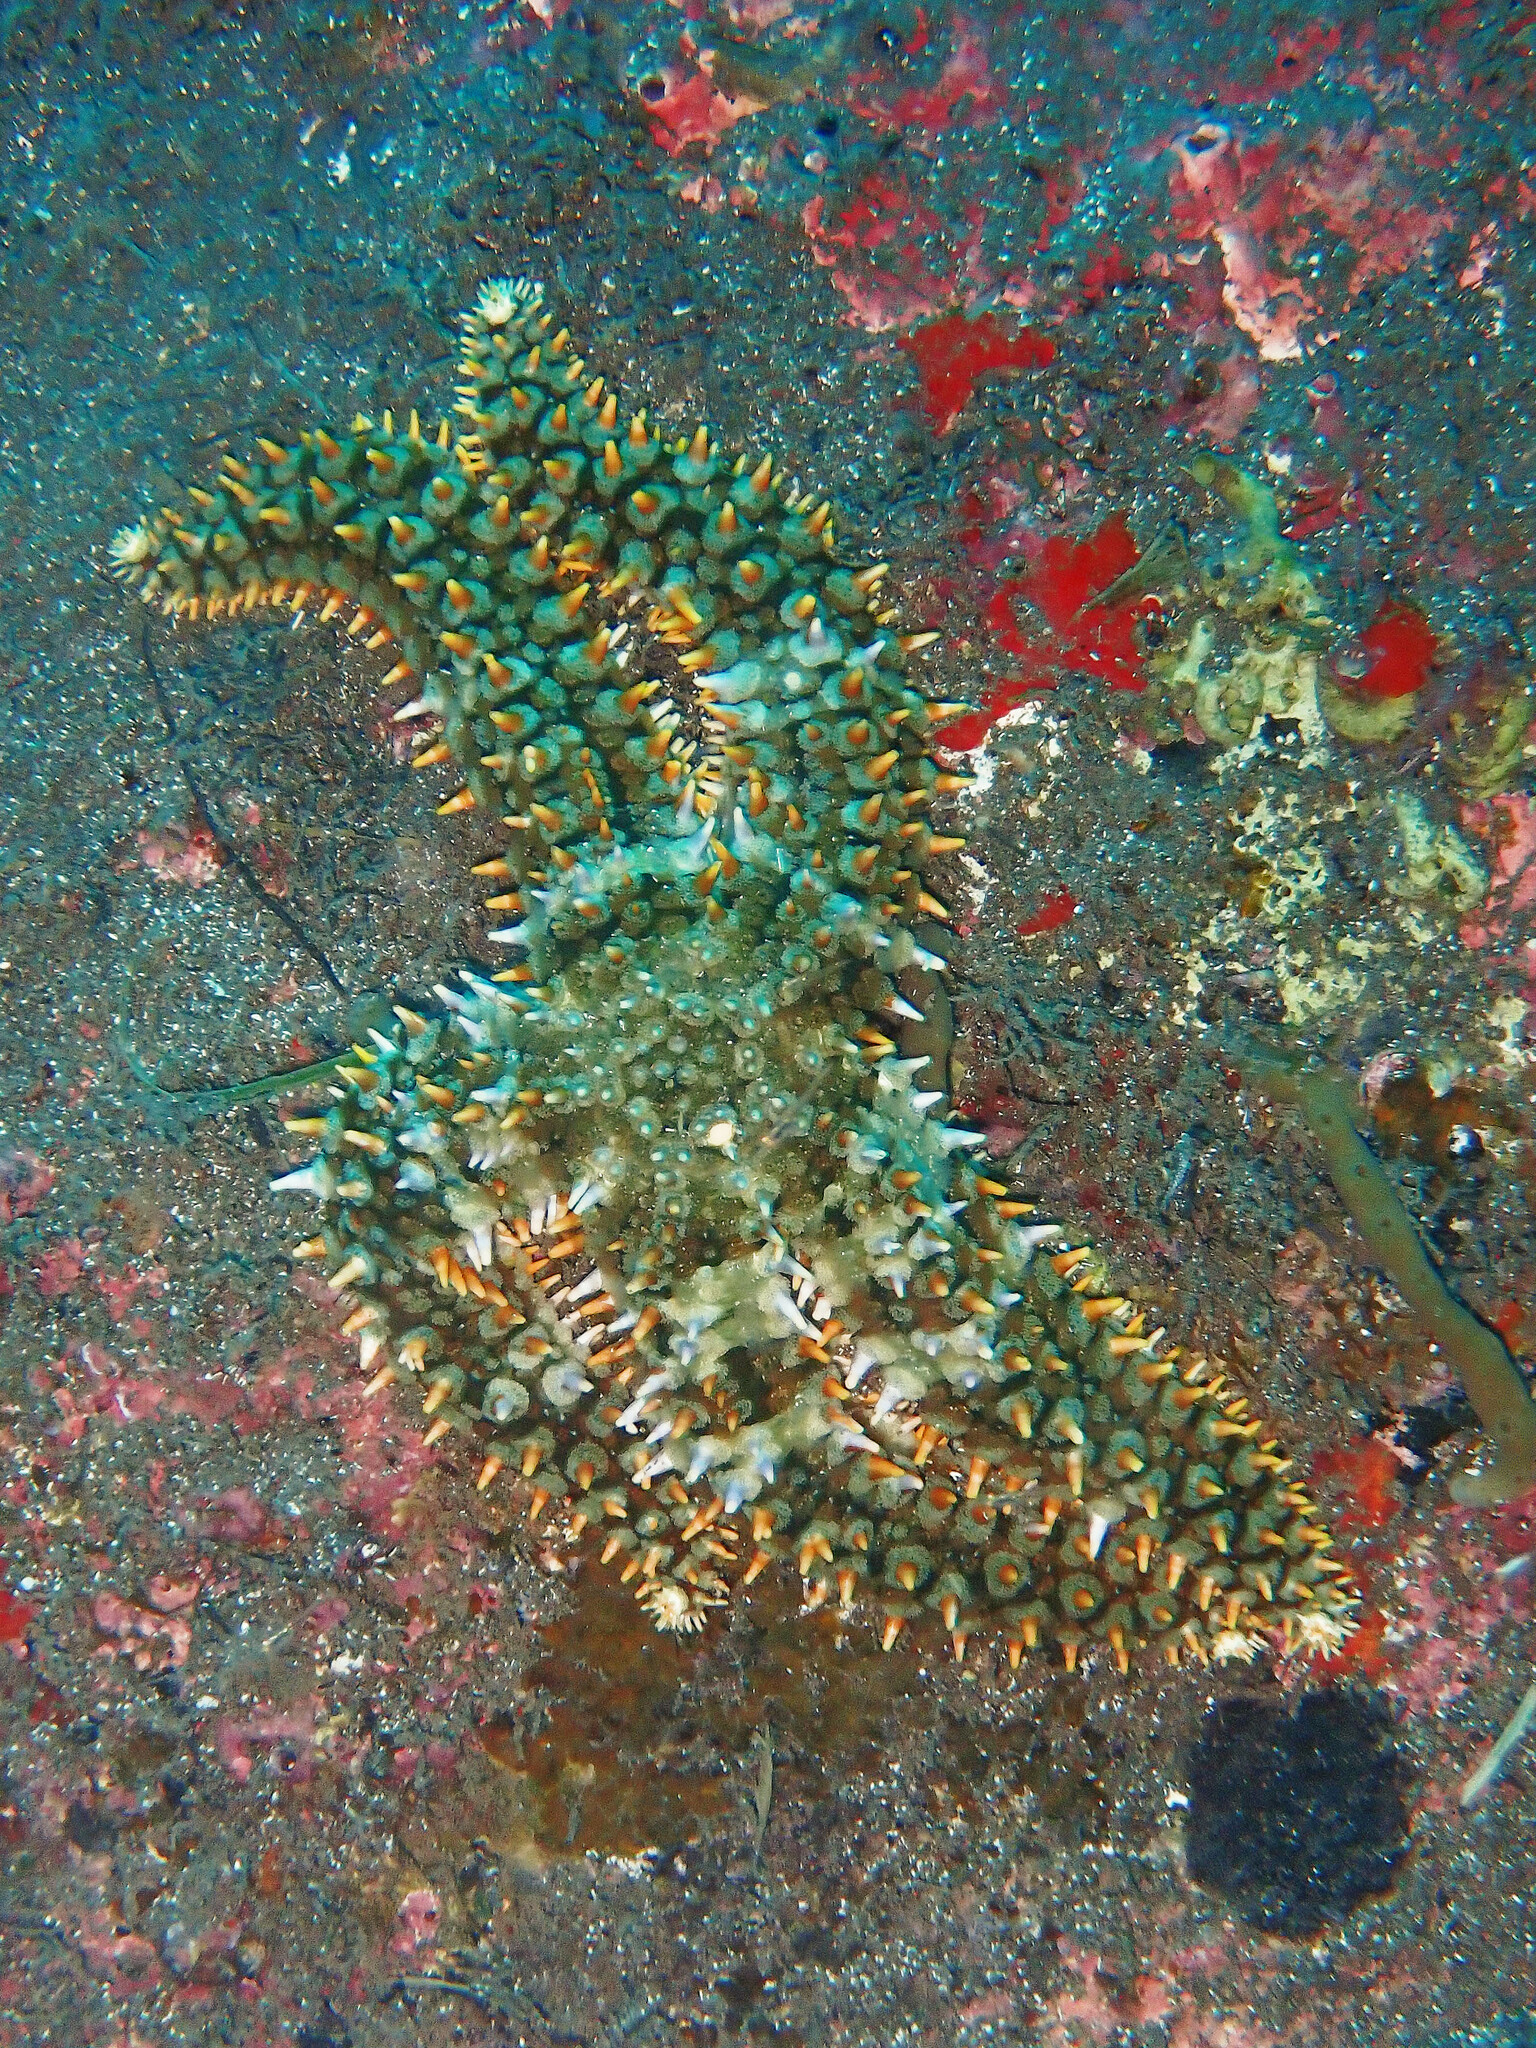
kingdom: Animalia
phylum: Echinodermata
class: Asteroidea
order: Forcipulatida
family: Asteriidae
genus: Marthasterias
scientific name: Marthasterias glacialis
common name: Spiny starfish
